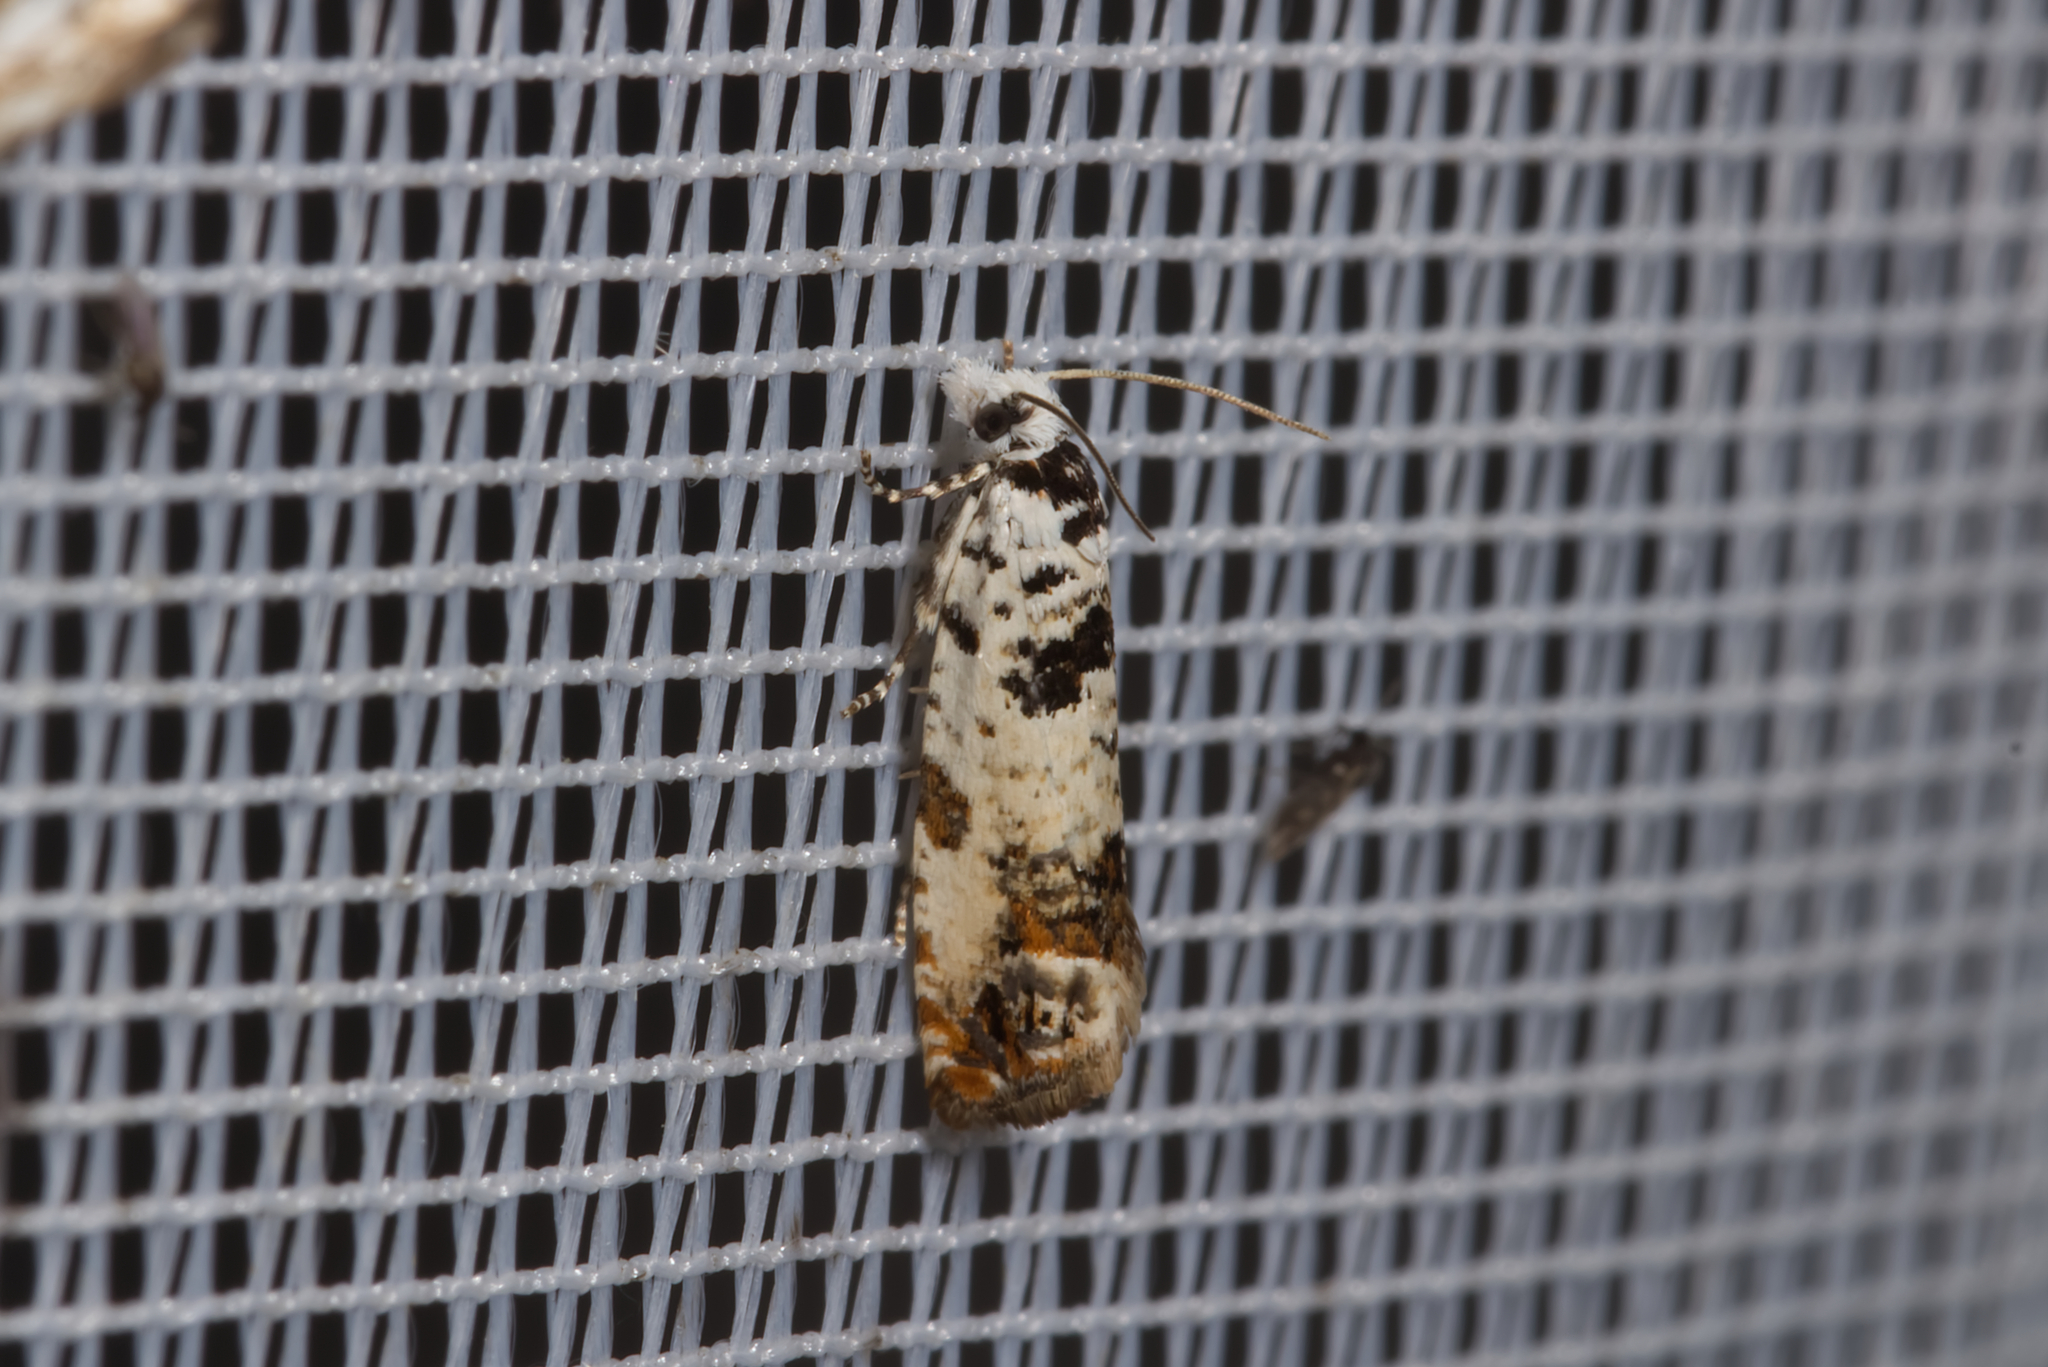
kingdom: Animalia
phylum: Arthropoda
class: Insecta
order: Lepidoptera
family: Tortricidae
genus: Eucosma
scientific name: Eucosma campoliliana
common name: Marbled bell
